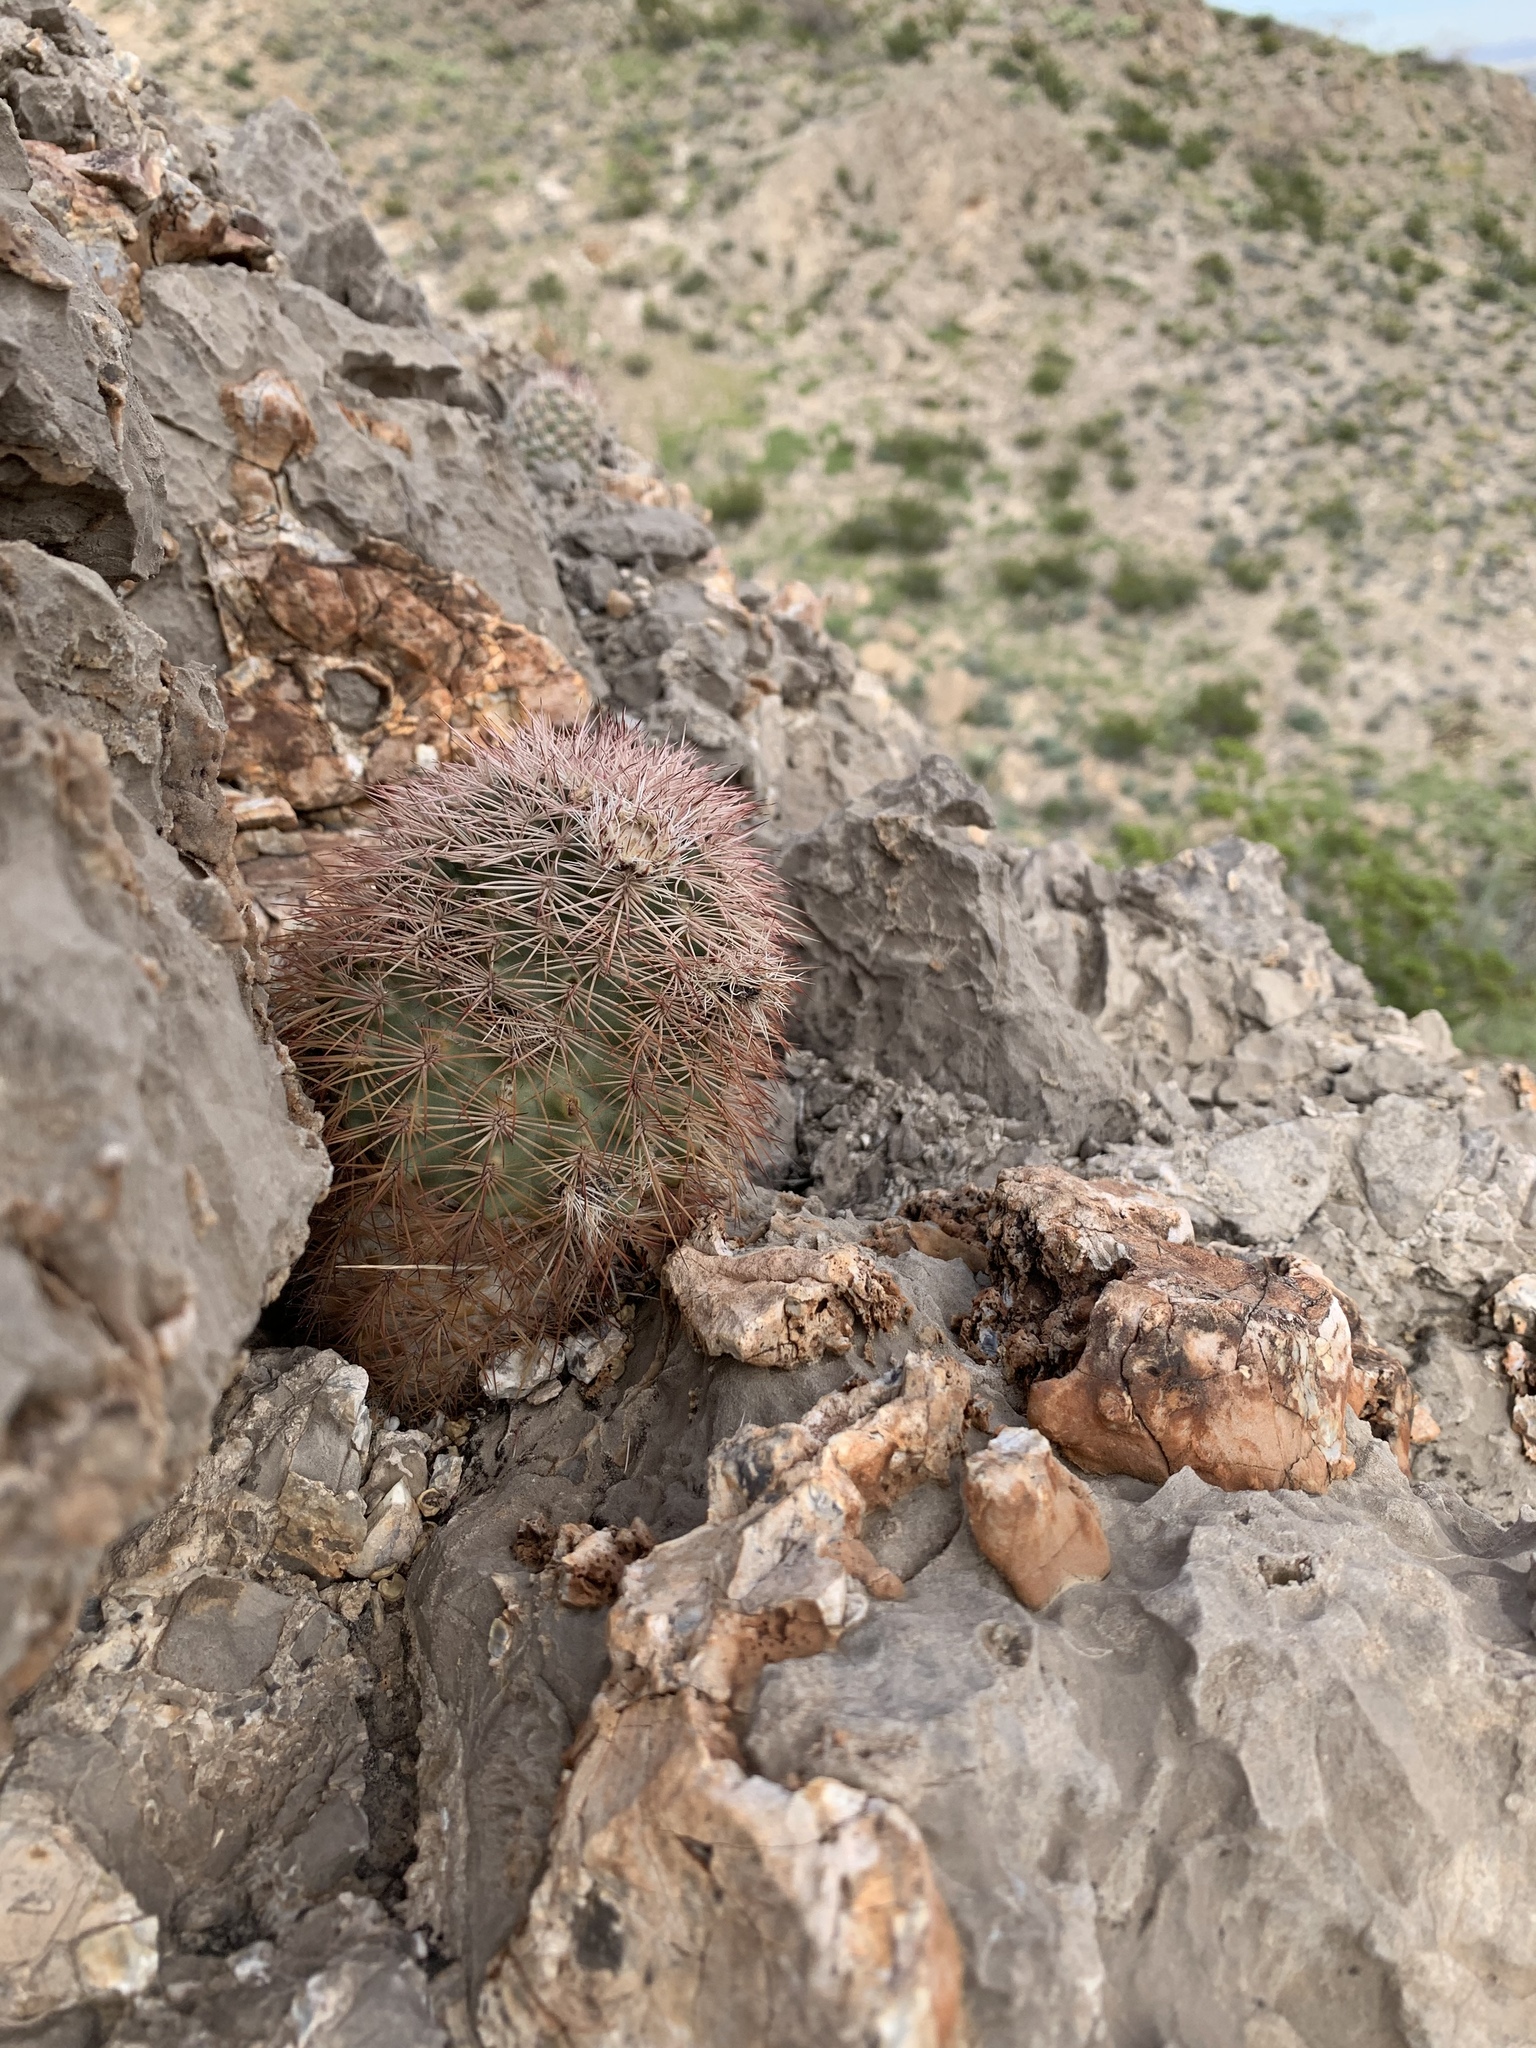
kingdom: Plantae
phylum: Tracheophyta
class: Magnoliopsida
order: Caryophyllales
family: Cactaceae
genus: Echinocereus
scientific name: Echinocereus dasyacanthus
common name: Spiny hedgehog cactus
